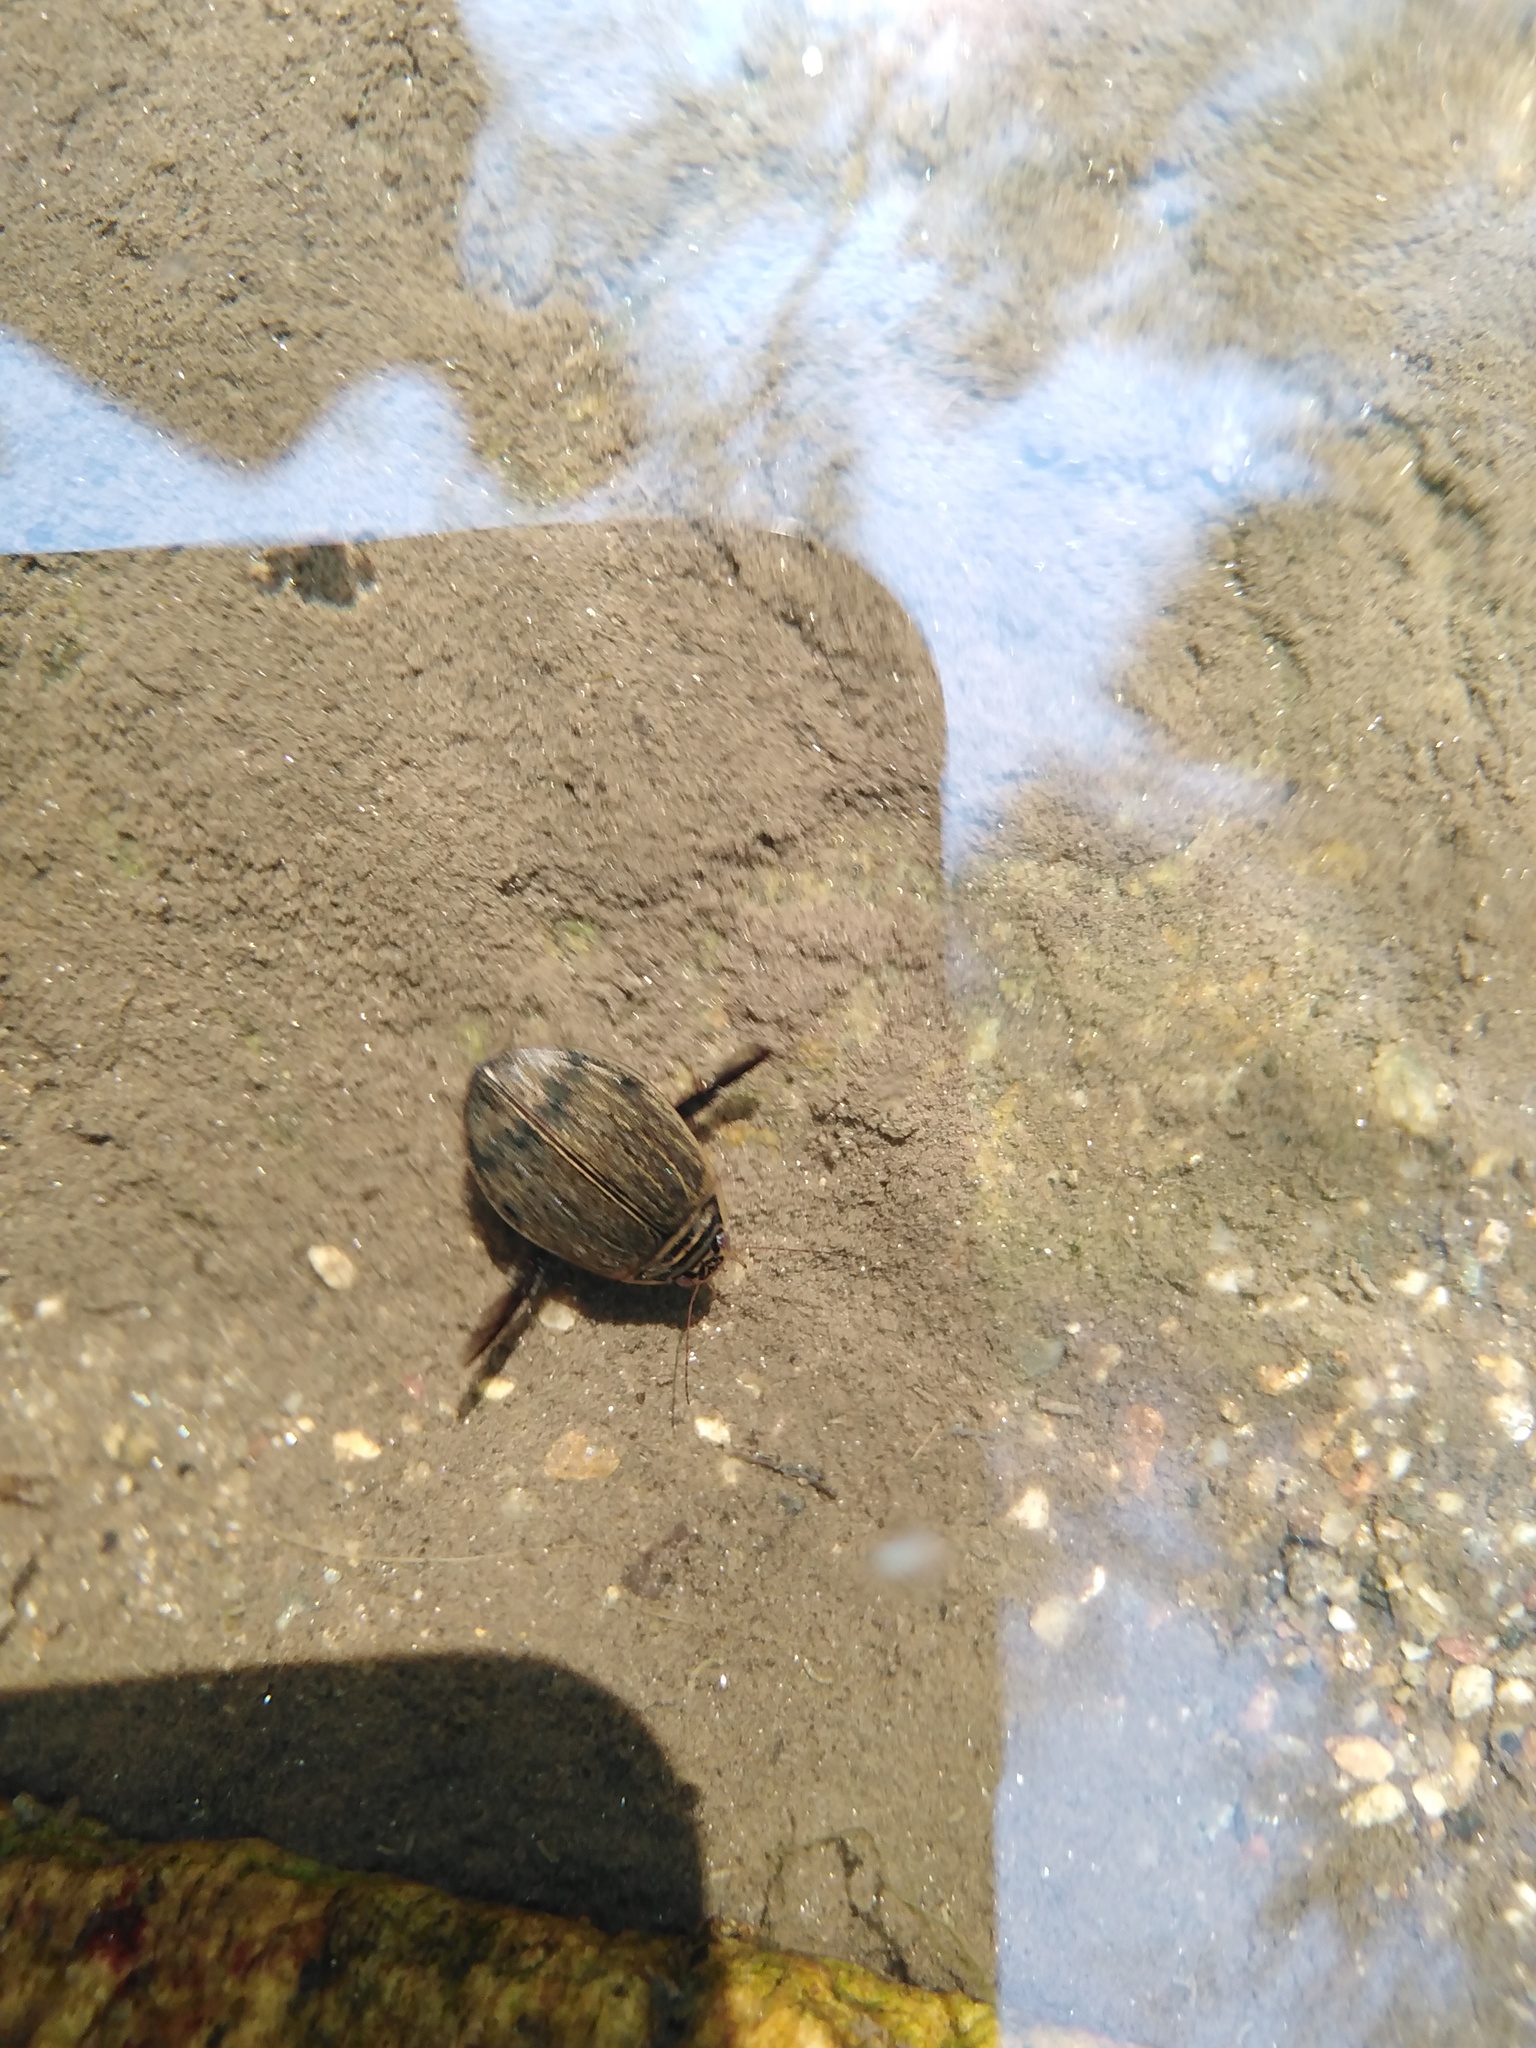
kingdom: Animalia
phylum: Arthropoda
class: Insecta
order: Coleoptera
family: Dytiscidae
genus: Acilius
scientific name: Acilius sulcatus
